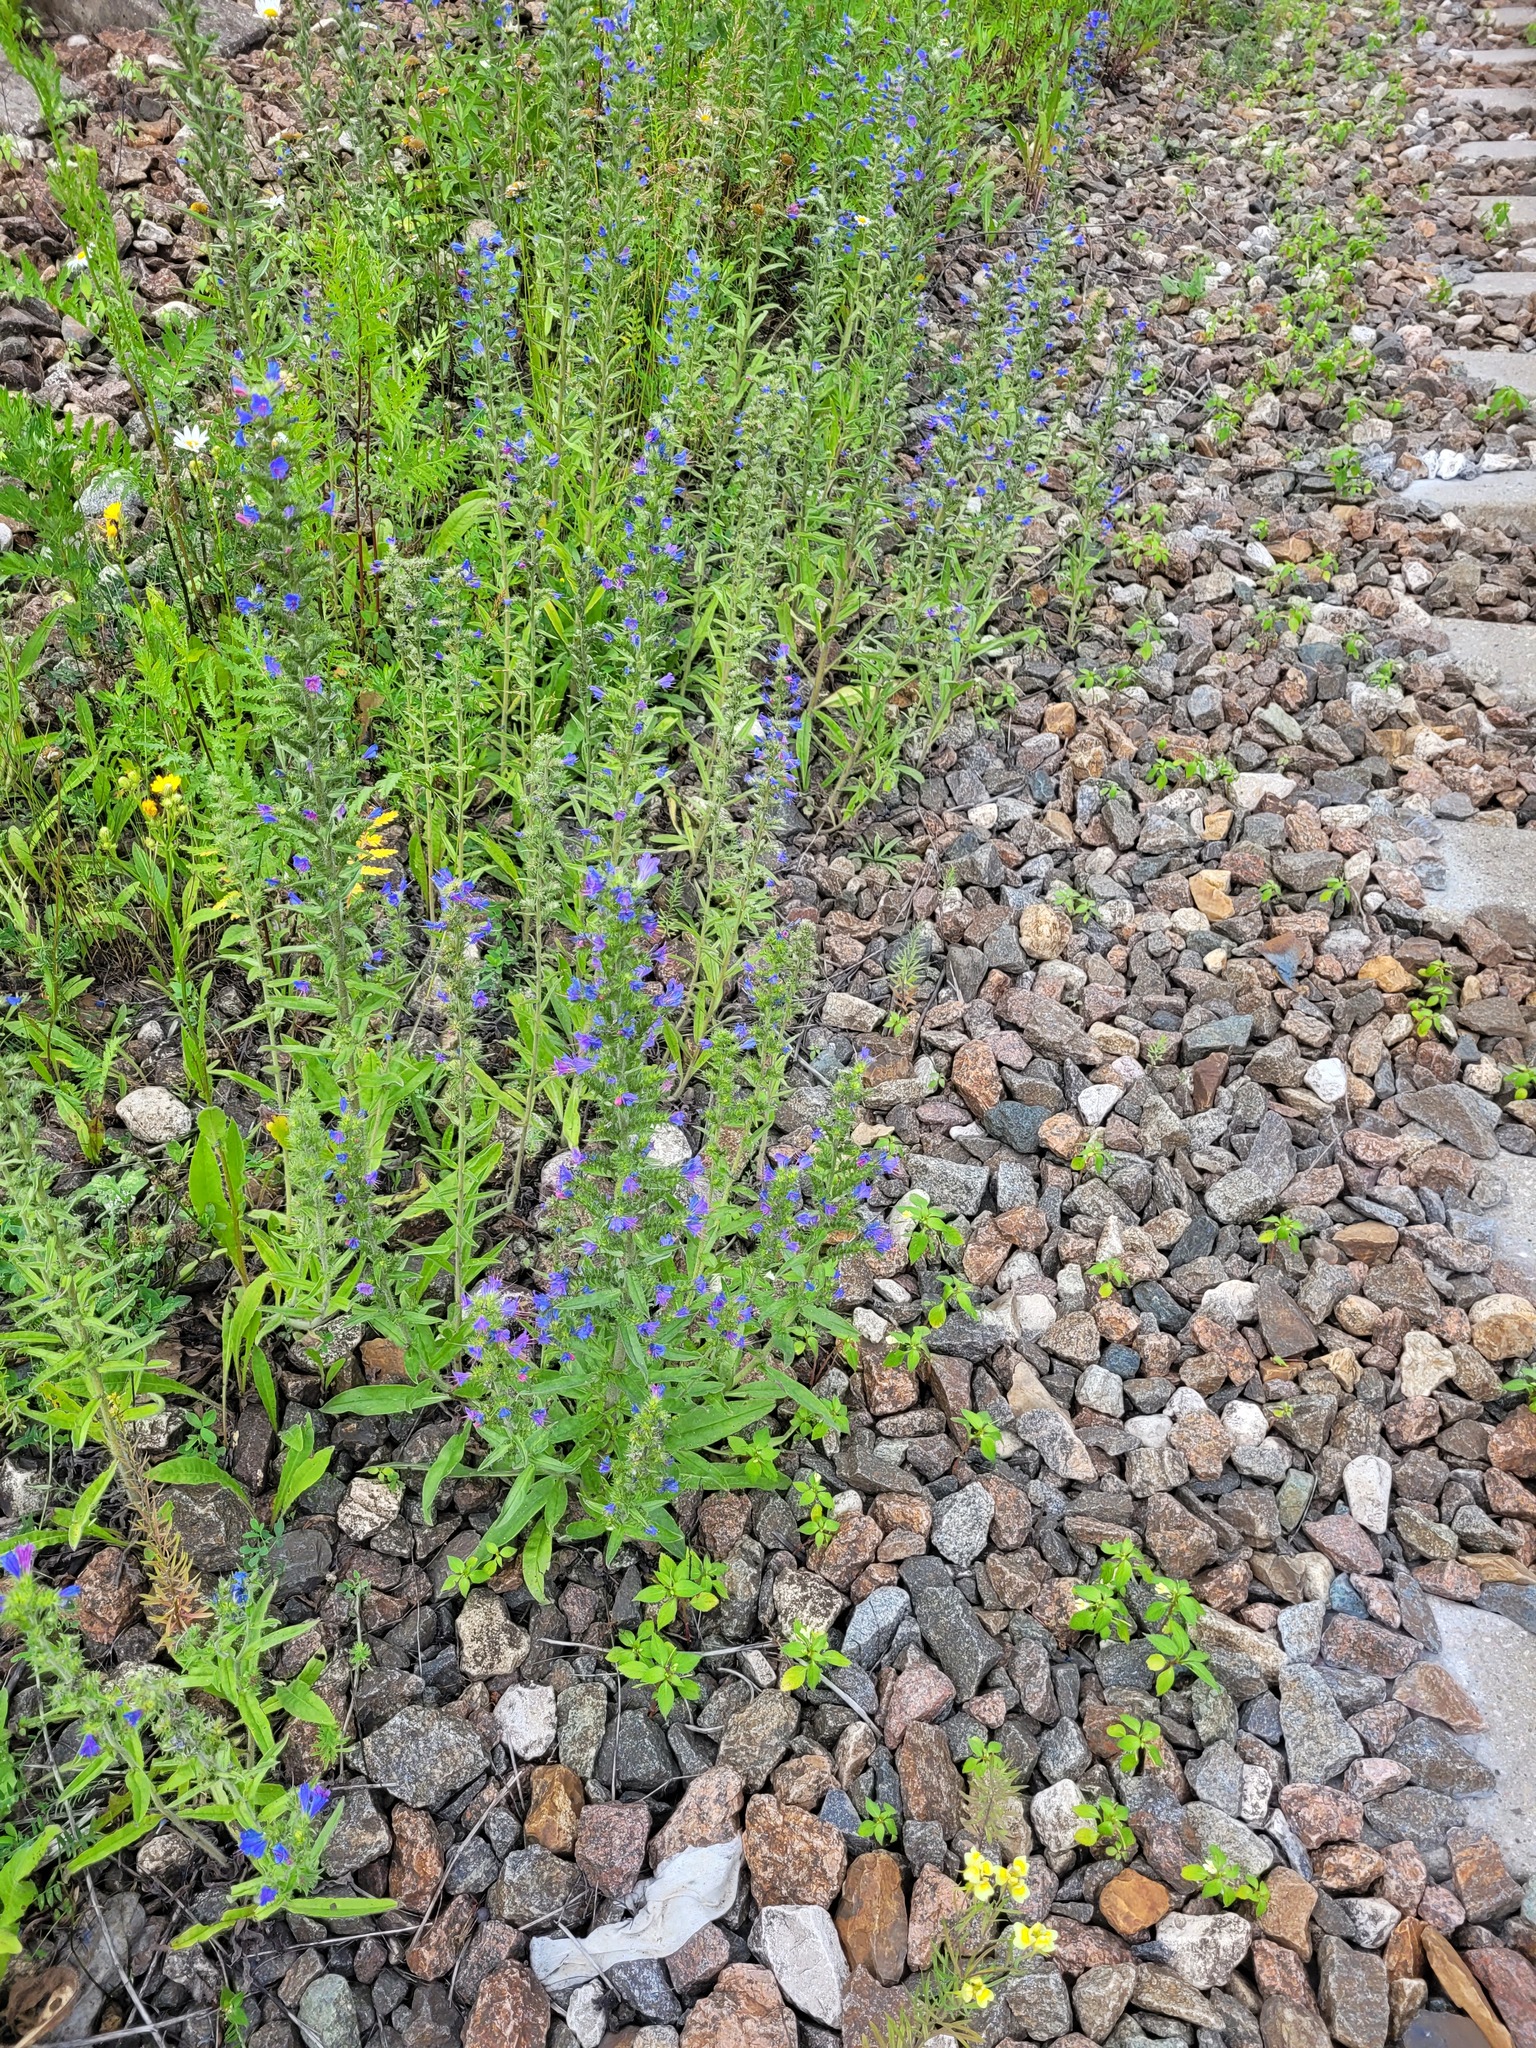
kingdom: Plantae
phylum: Tracheophyta
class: Magnoliopsida
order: Boraginales
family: Boraginaceae
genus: Echium
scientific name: Echium vulgare
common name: Common viper's bugloss
